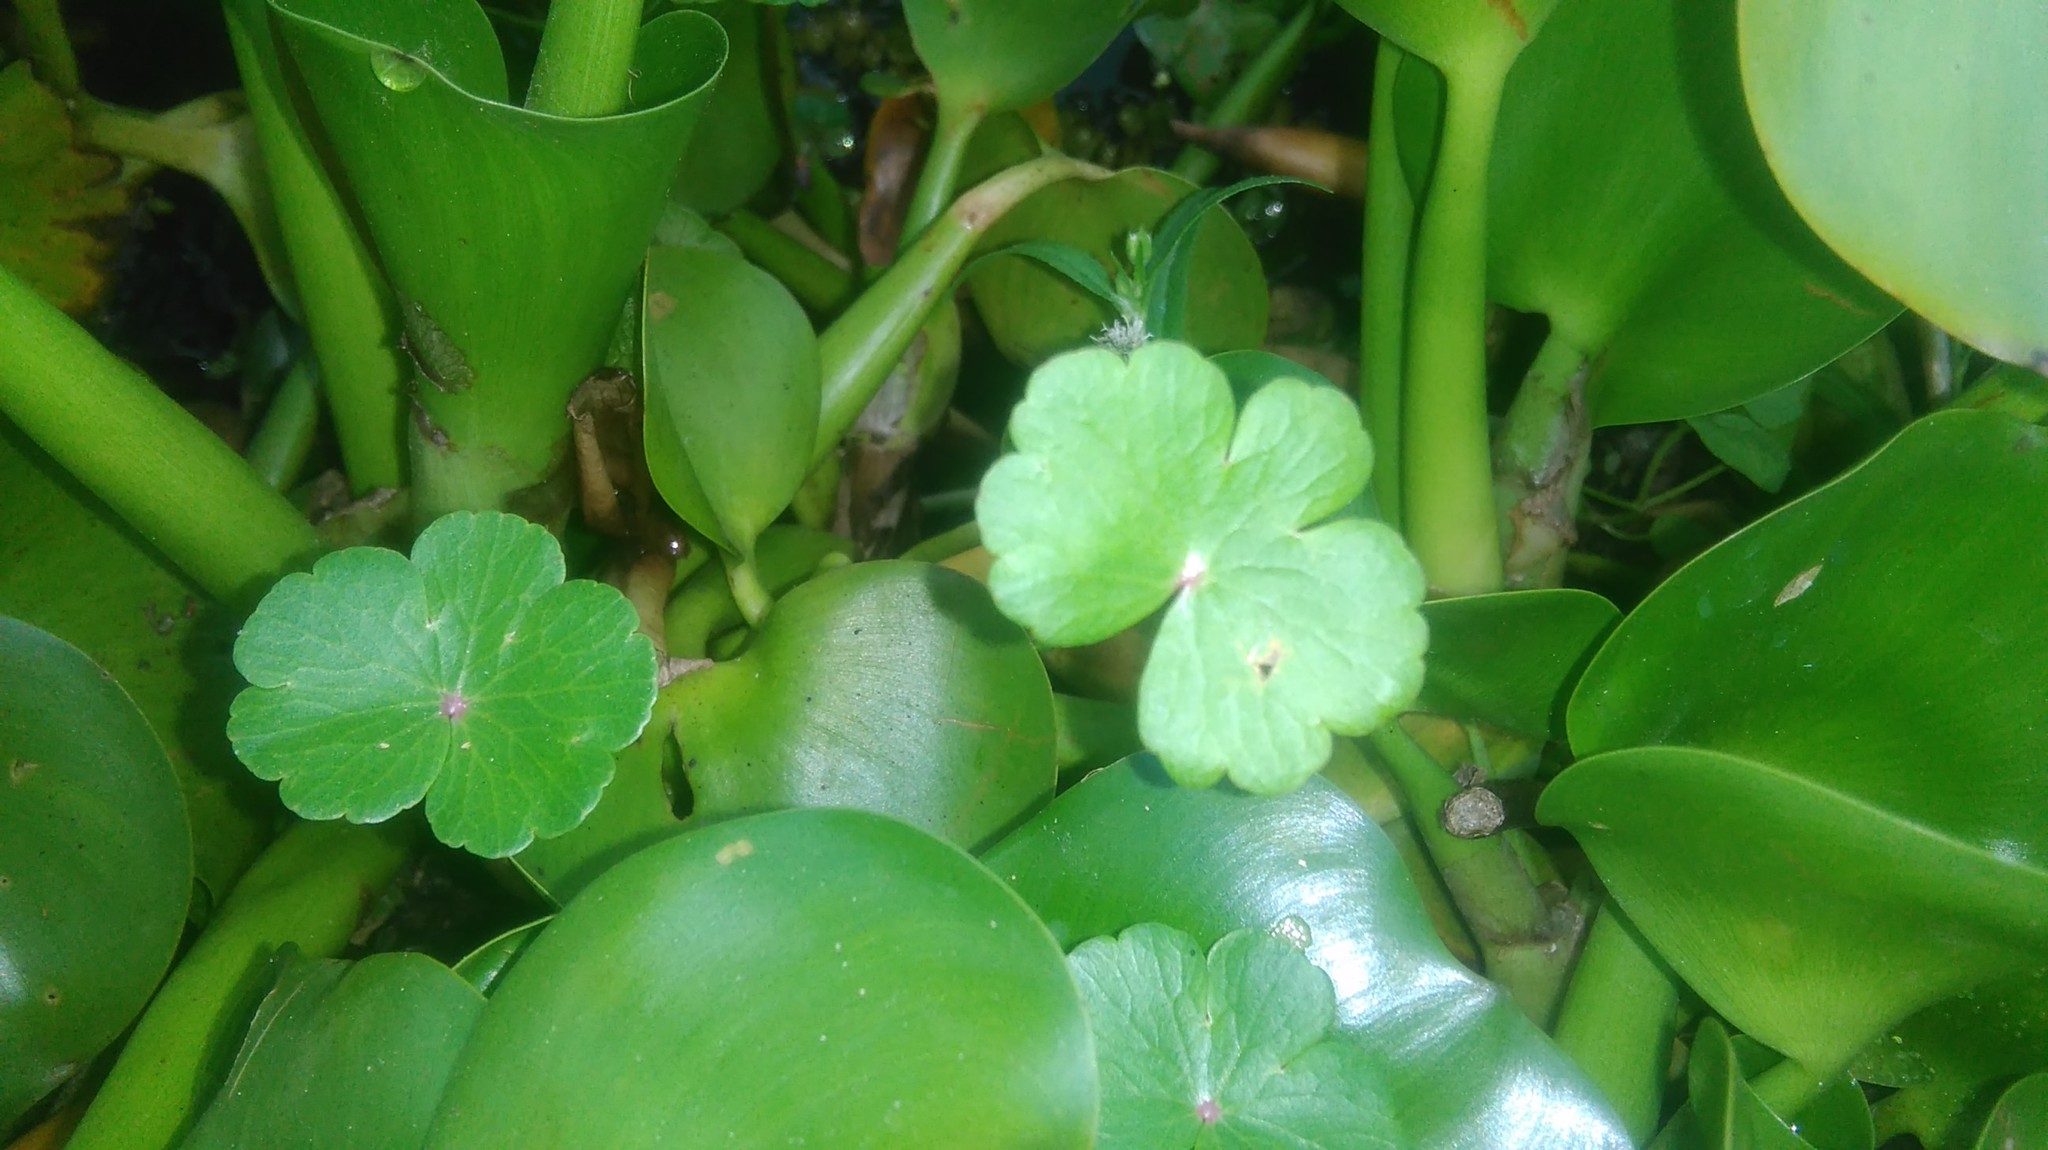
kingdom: Plantae
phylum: Tracheophyta
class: Magnoliopsida
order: Apiales
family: Araliaceae
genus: Hydrocotyle
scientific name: Hydrocotyle ranunculoides
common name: Floating pennywort
